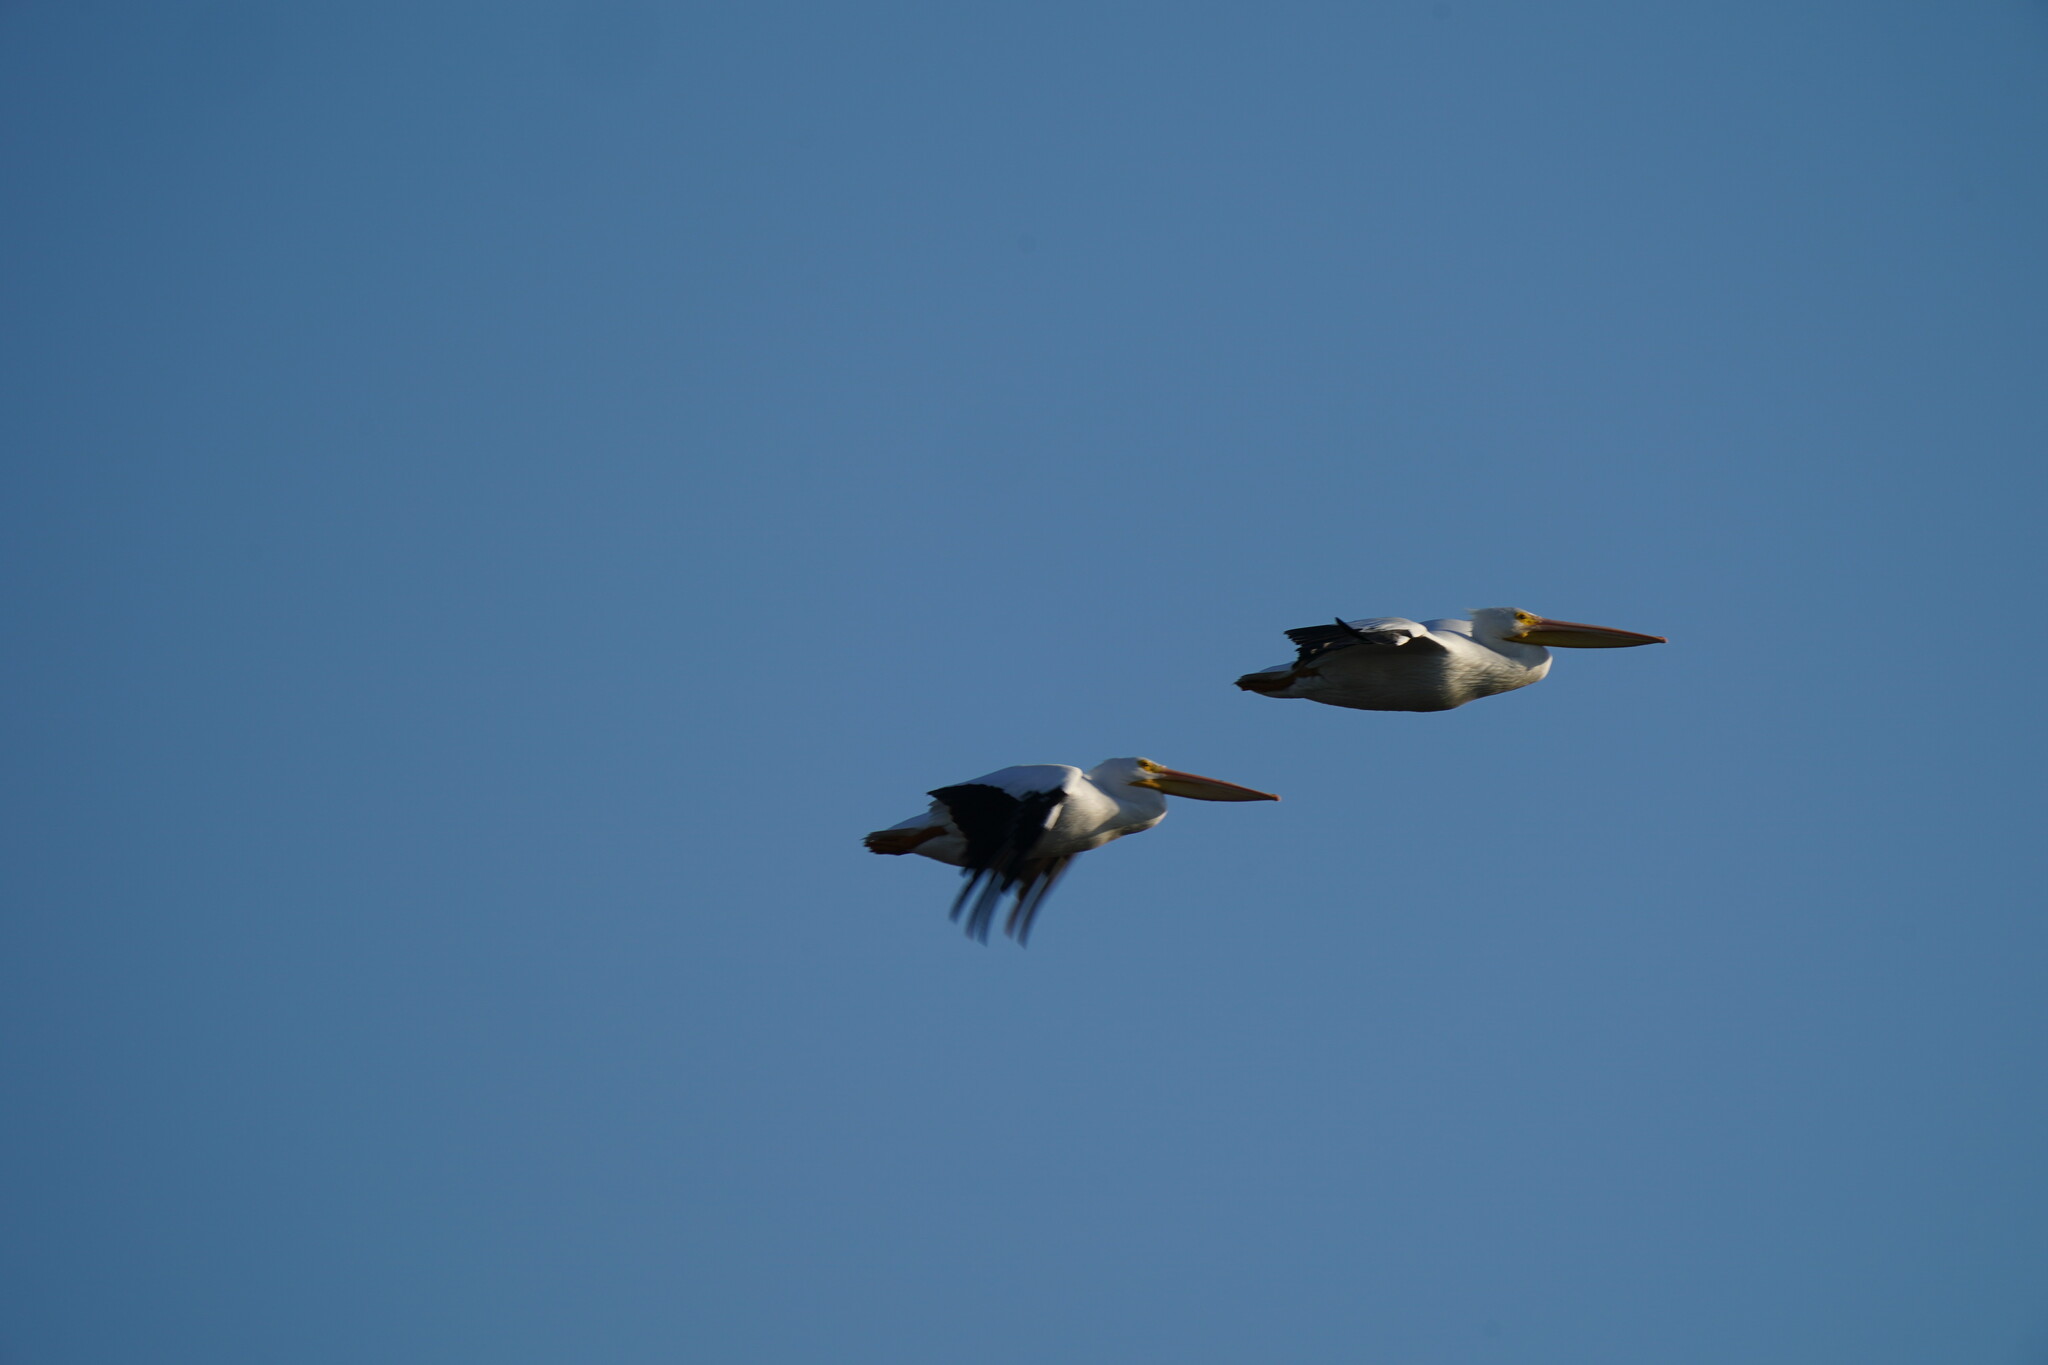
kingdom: Animalia
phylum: Chordata
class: Aves
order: Pelecaniformes
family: Pelecanidae
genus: Pelecanus
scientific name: Pelecanus erythrorhynchos
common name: American white pelican
